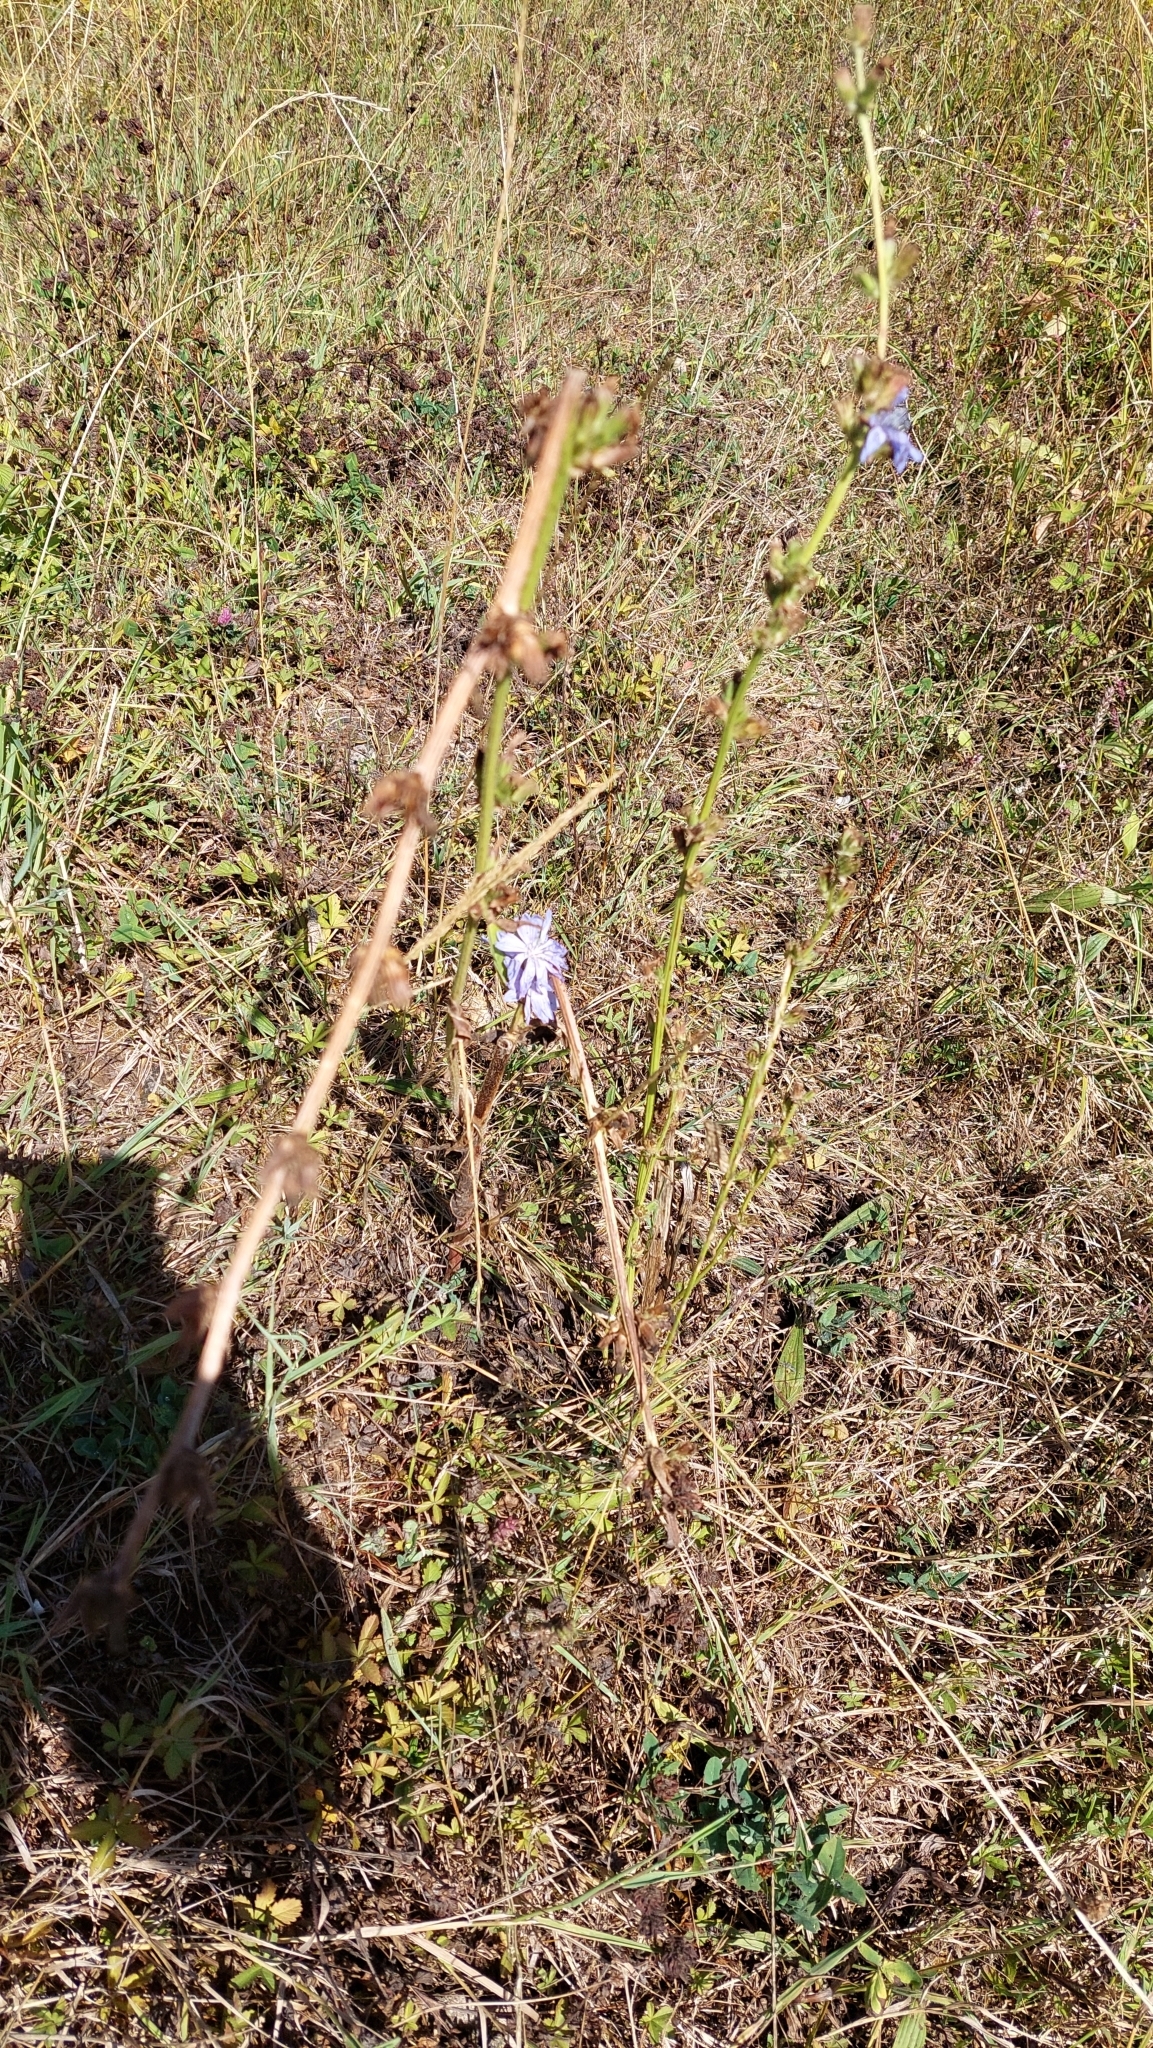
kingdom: Plantae
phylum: Tracheophyta
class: Magnoliopsida
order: Asterales
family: Asteraceae
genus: Cichorium
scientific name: Cichorium intybus
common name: Chicory
